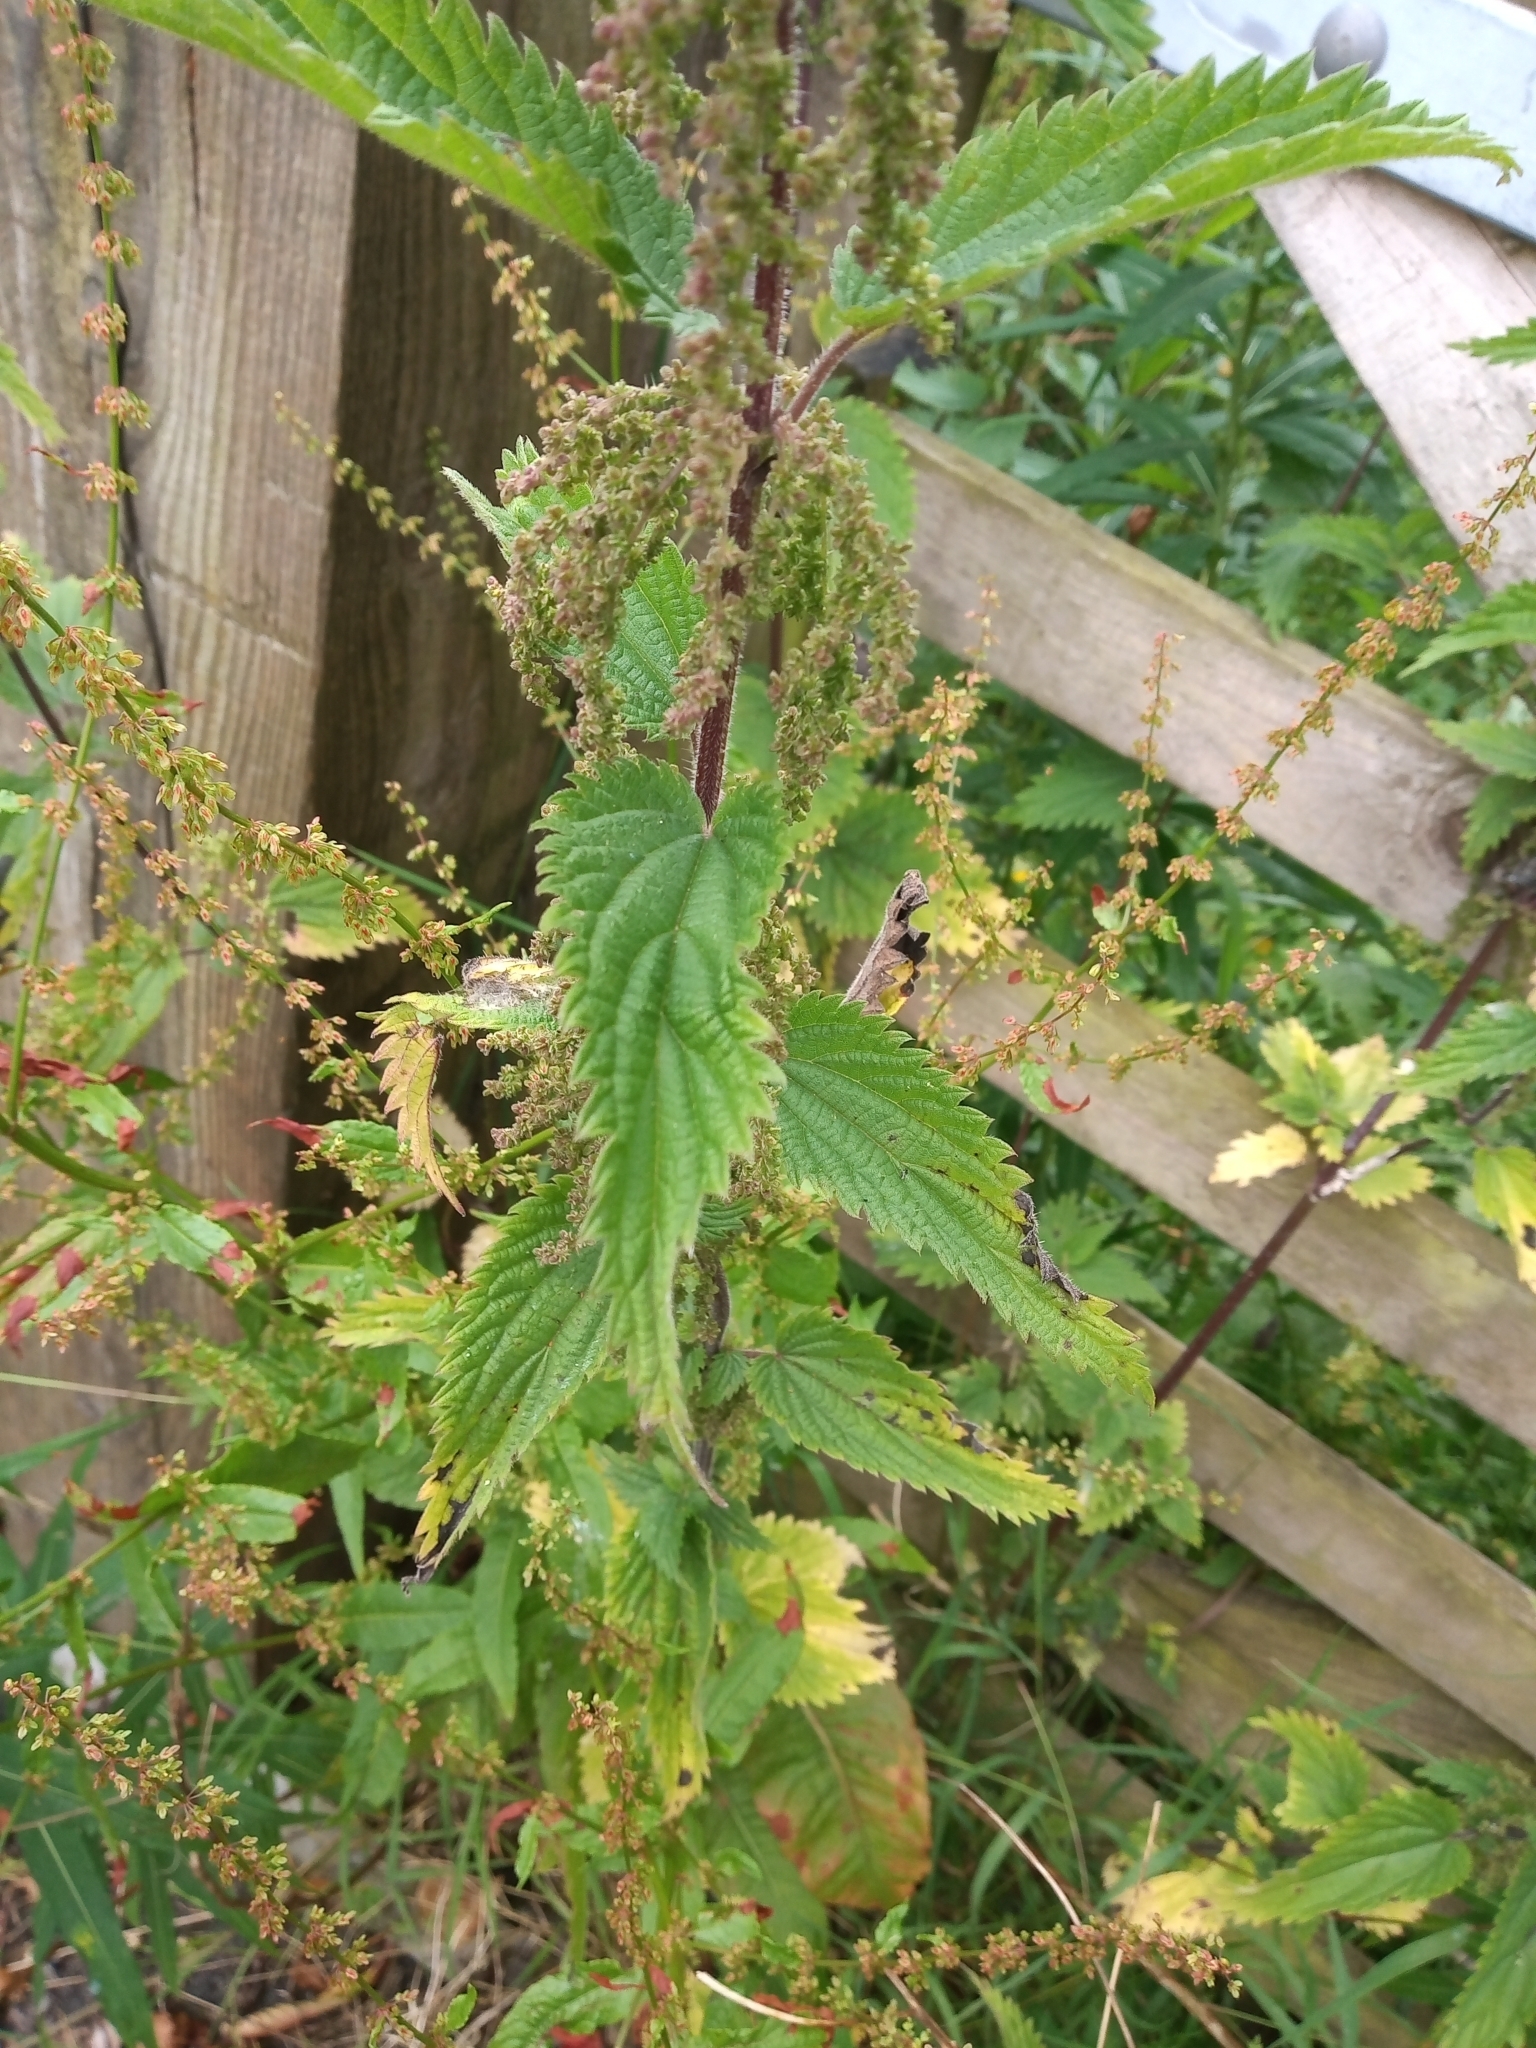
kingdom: Plantae
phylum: Tracheophyta
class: Magnoliopsida
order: Rosales
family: Urticaceae
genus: Urtica
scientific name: Urtica dioica
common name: Common nettle
